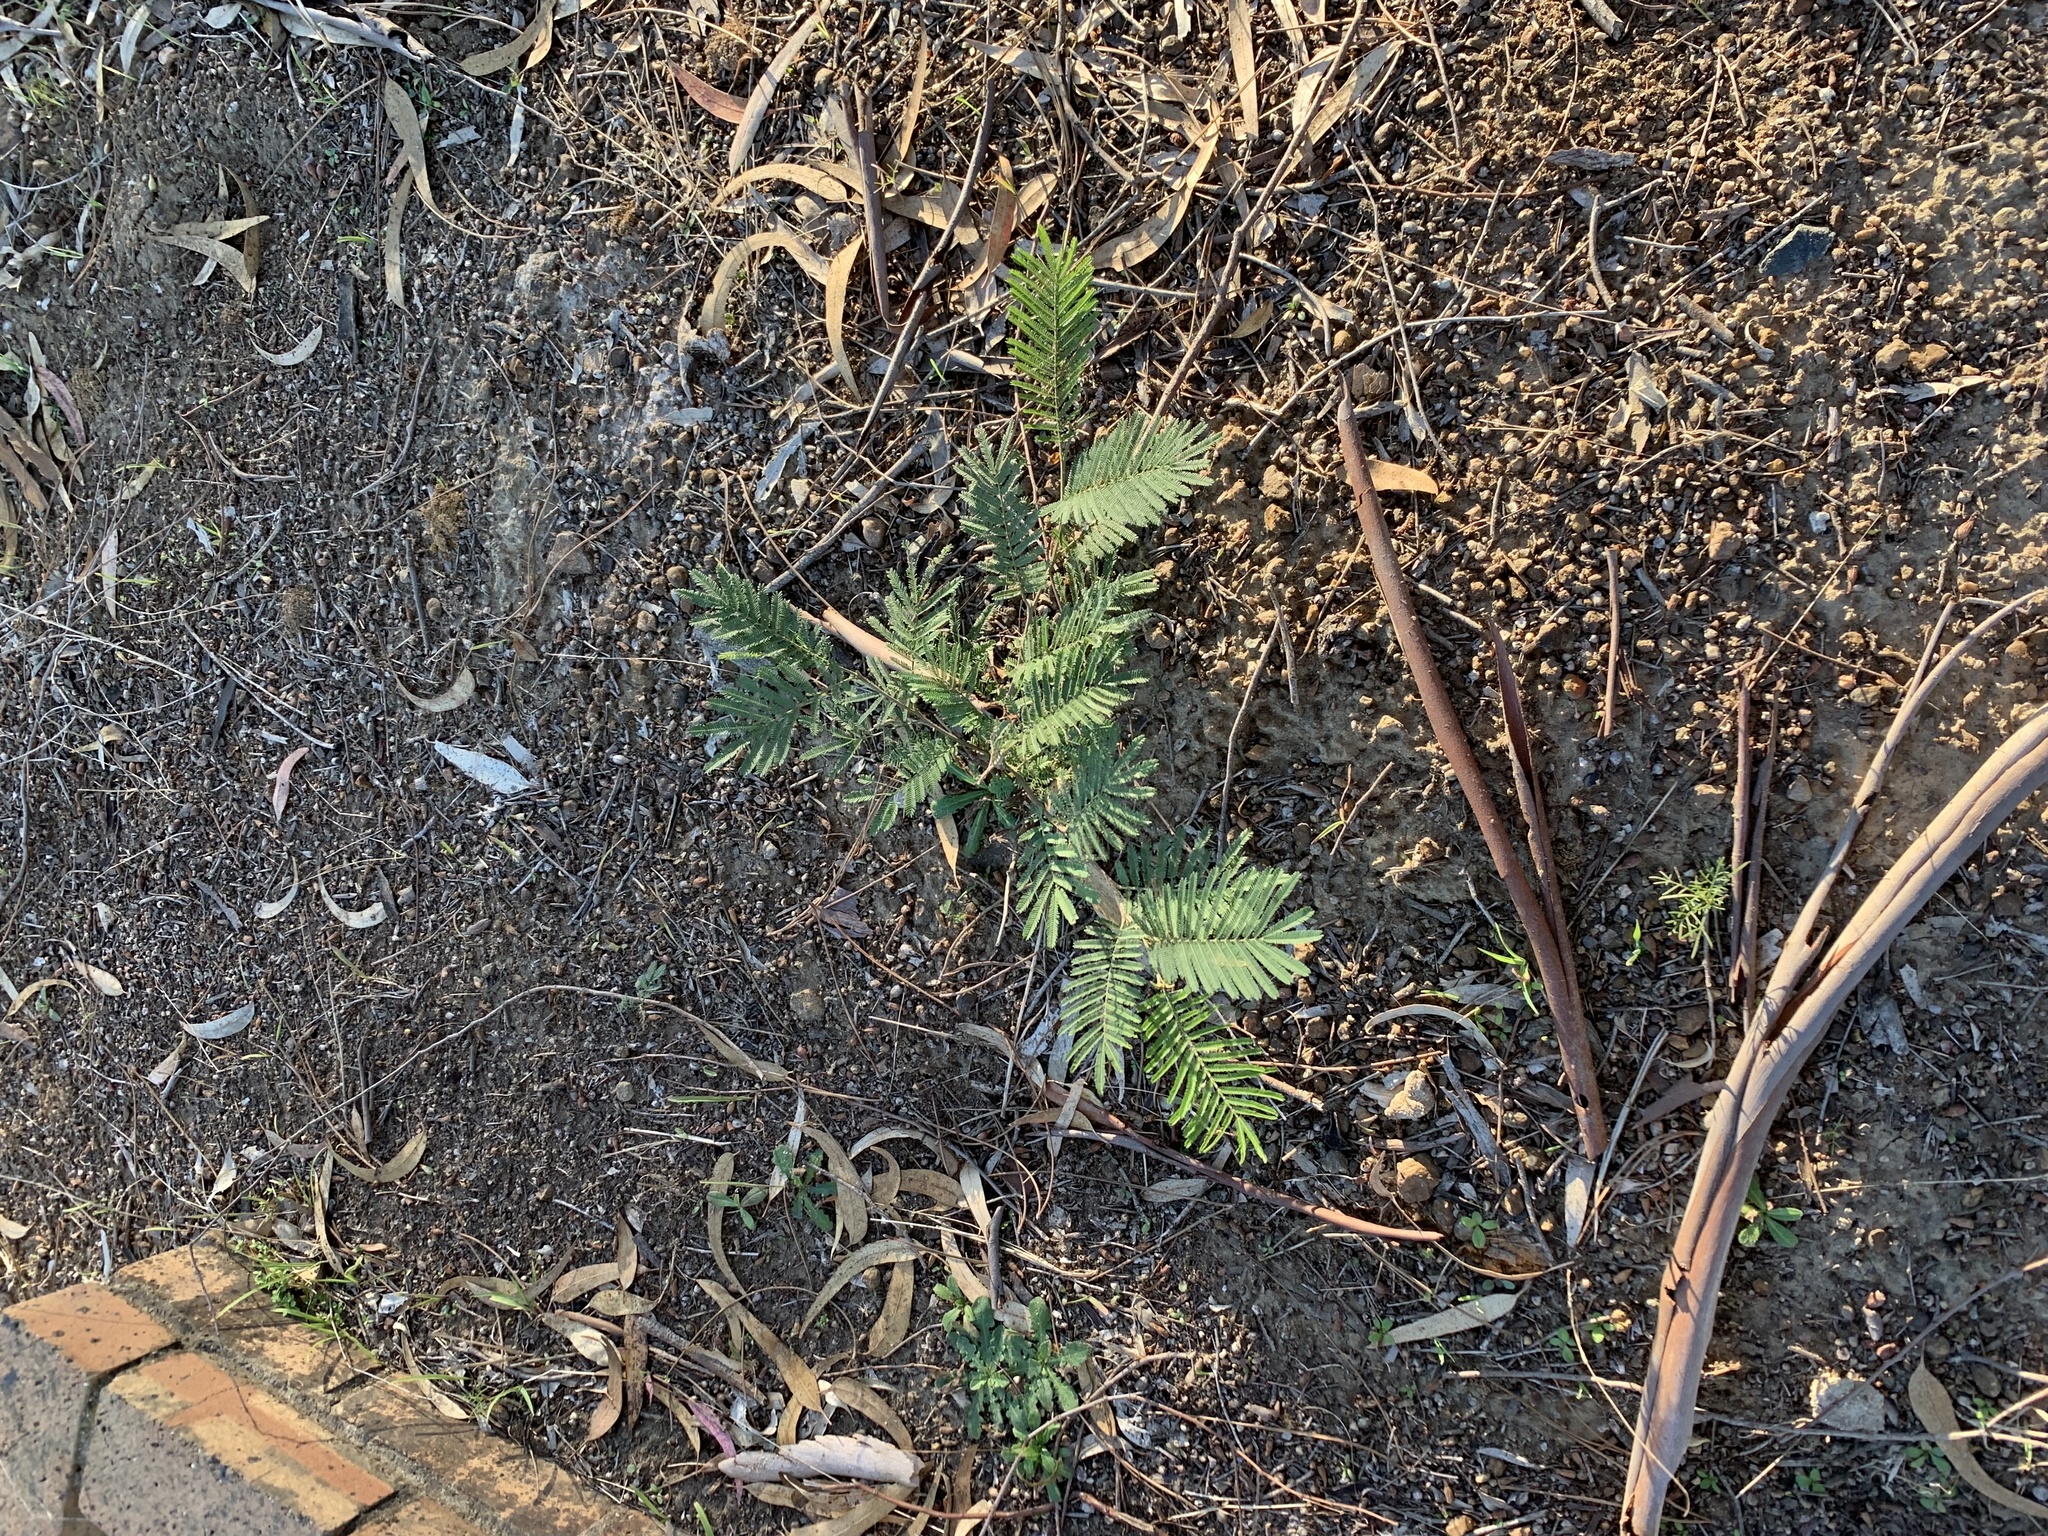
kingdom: Plantae
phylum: Tracheophyta
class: Magnoliopsida
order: Fabales
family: Fabaceae
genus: Acacia
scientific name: Acacia mearnsii
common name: Black wattle
